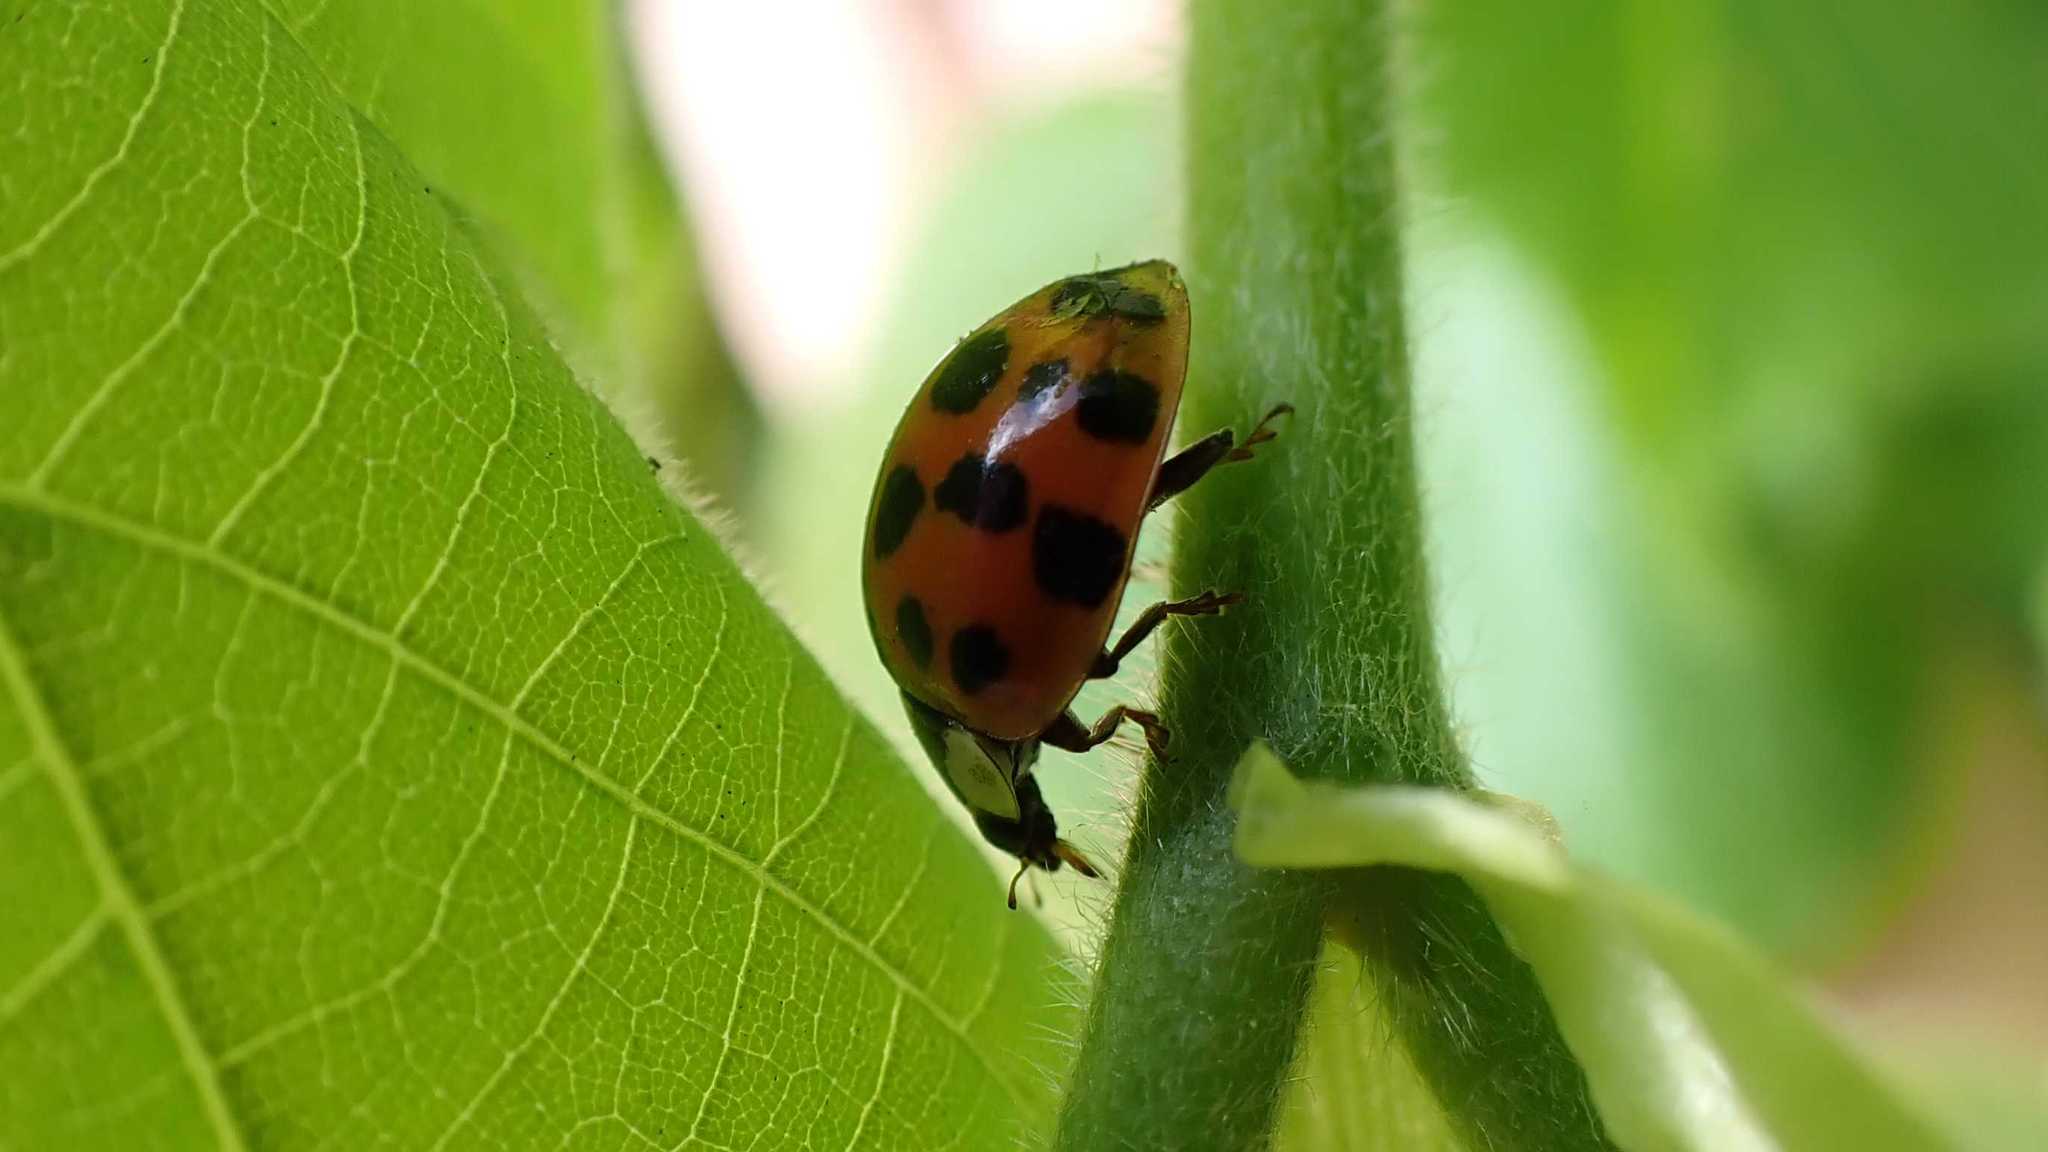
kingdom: Animalia
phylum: Arthropoda
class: Insecta
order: Coleoptera
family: Coccinellidae
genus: Harmonia
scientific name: Harmonia axyridis
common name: Harlequin ladybird
